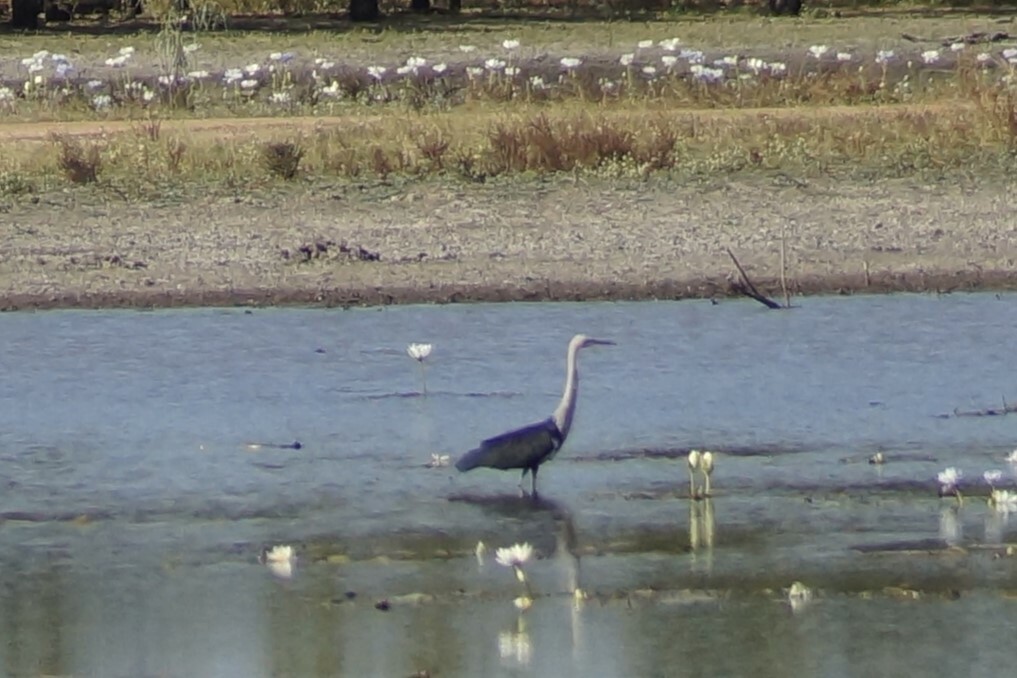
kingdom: Animalia
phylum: Chordata
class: Aves
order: Pelecaniformes
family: Ardeidae
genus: Ardea
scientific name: Ardea pacifica
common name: White-necked heron
